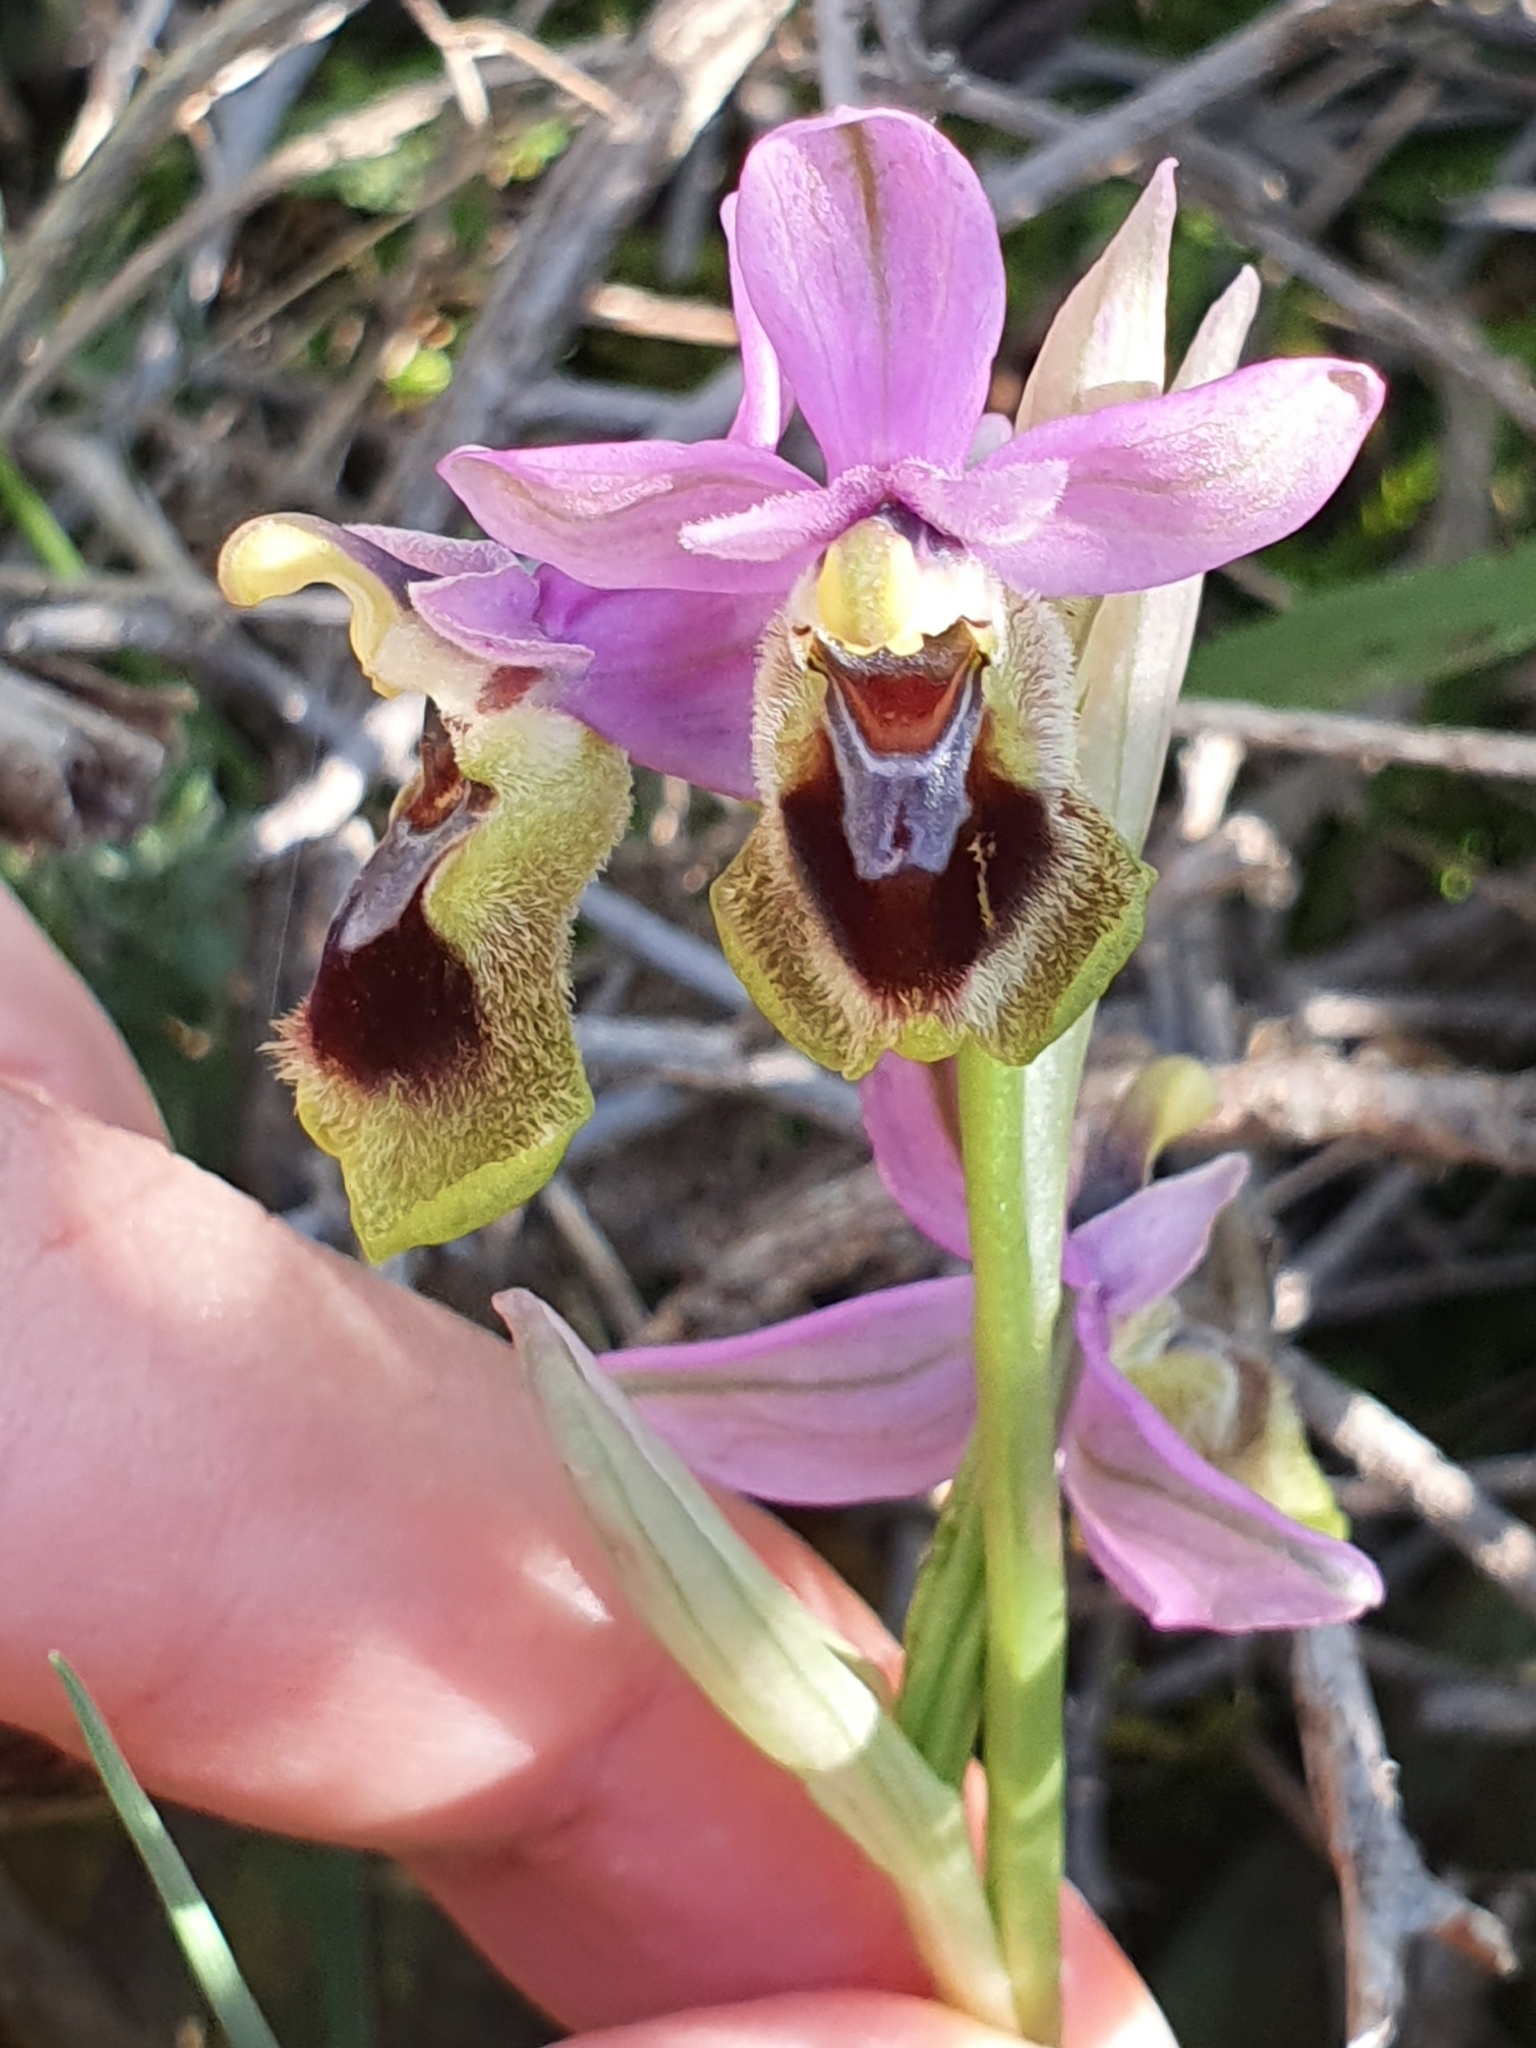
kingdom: Plantae
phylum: Tracheophyta
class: Liliopsida
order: Asparagales
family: Orchidaceae
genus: Ophrys
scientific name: Ophrys tenthredinifera
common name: Sawfly orchid
